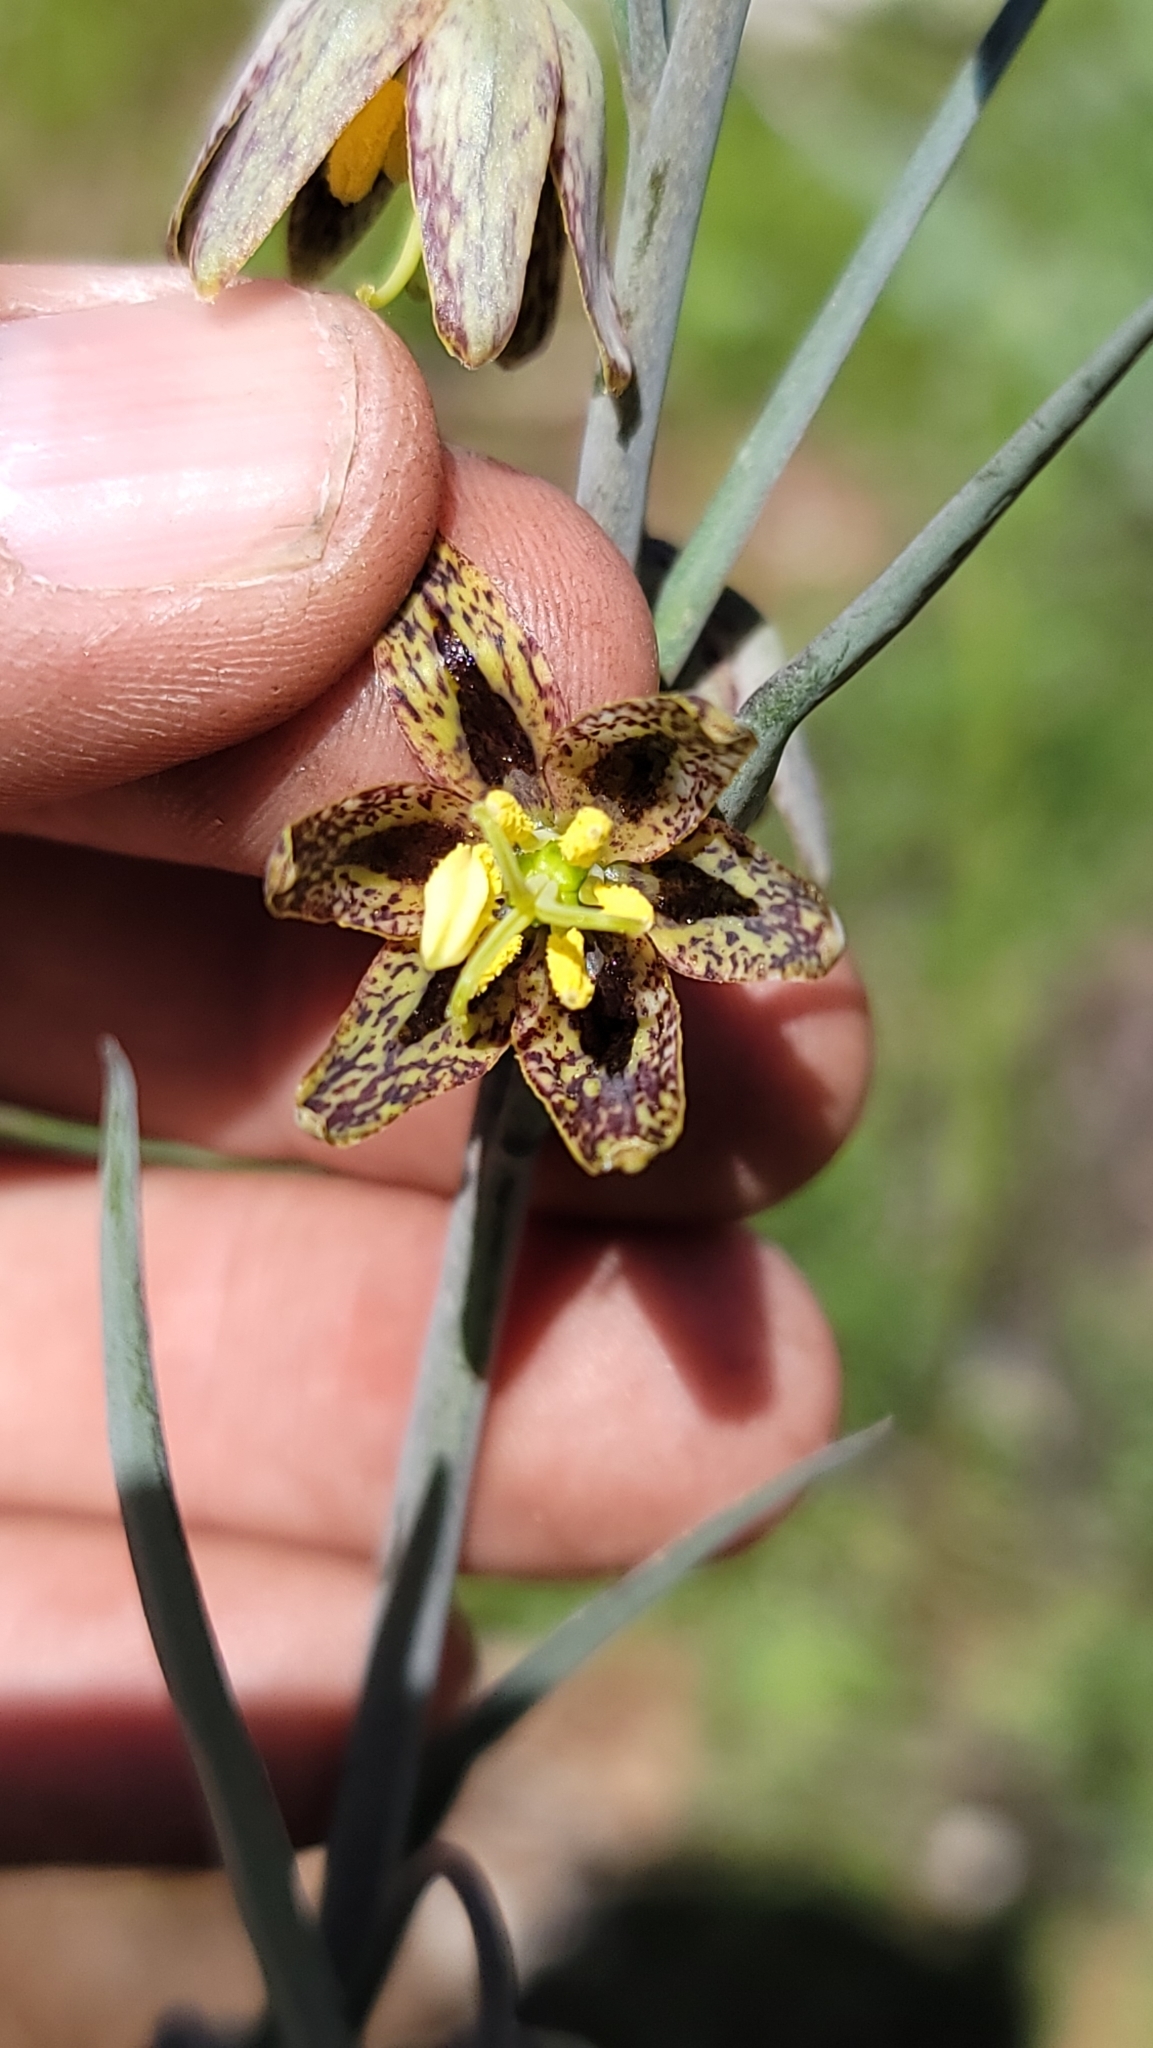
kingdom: Plantae
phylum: Tracheophyta
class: Liliopsida
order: Liliales
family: Liliaceae
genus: Fritillaria
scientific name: Fritillaria micrantha
